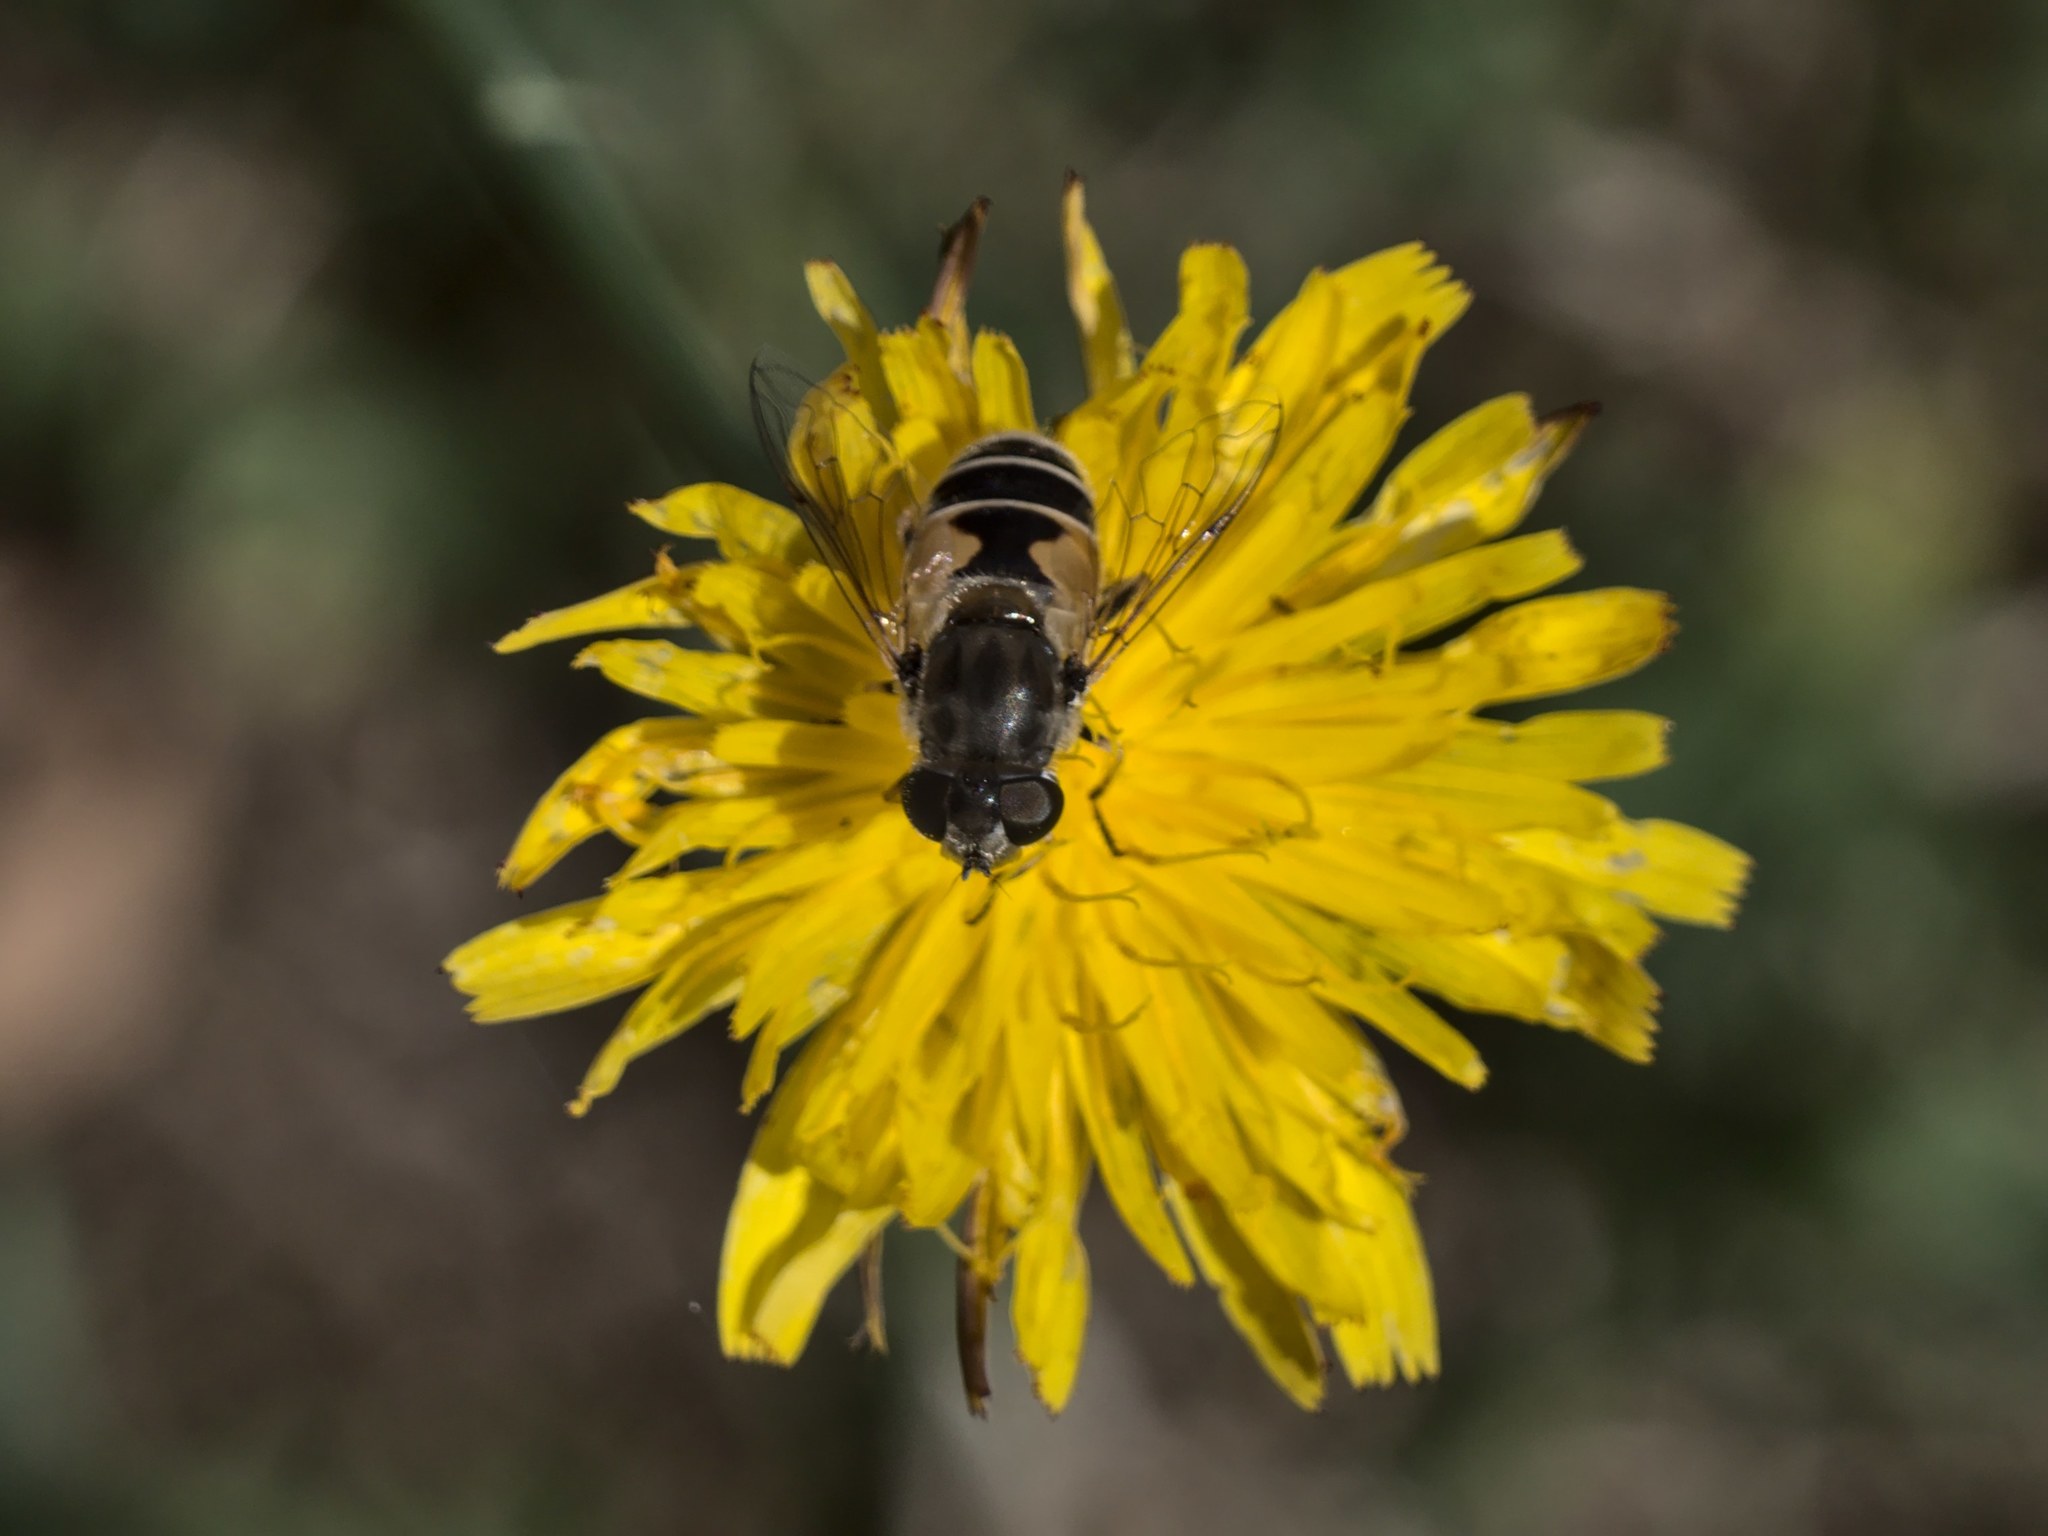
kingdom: Animalia
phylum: Arthropoda
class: Insecta
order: Diptera
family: Syrphidae
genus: Eristalis
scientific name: Eristalis arbustorum
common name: Hover fly
